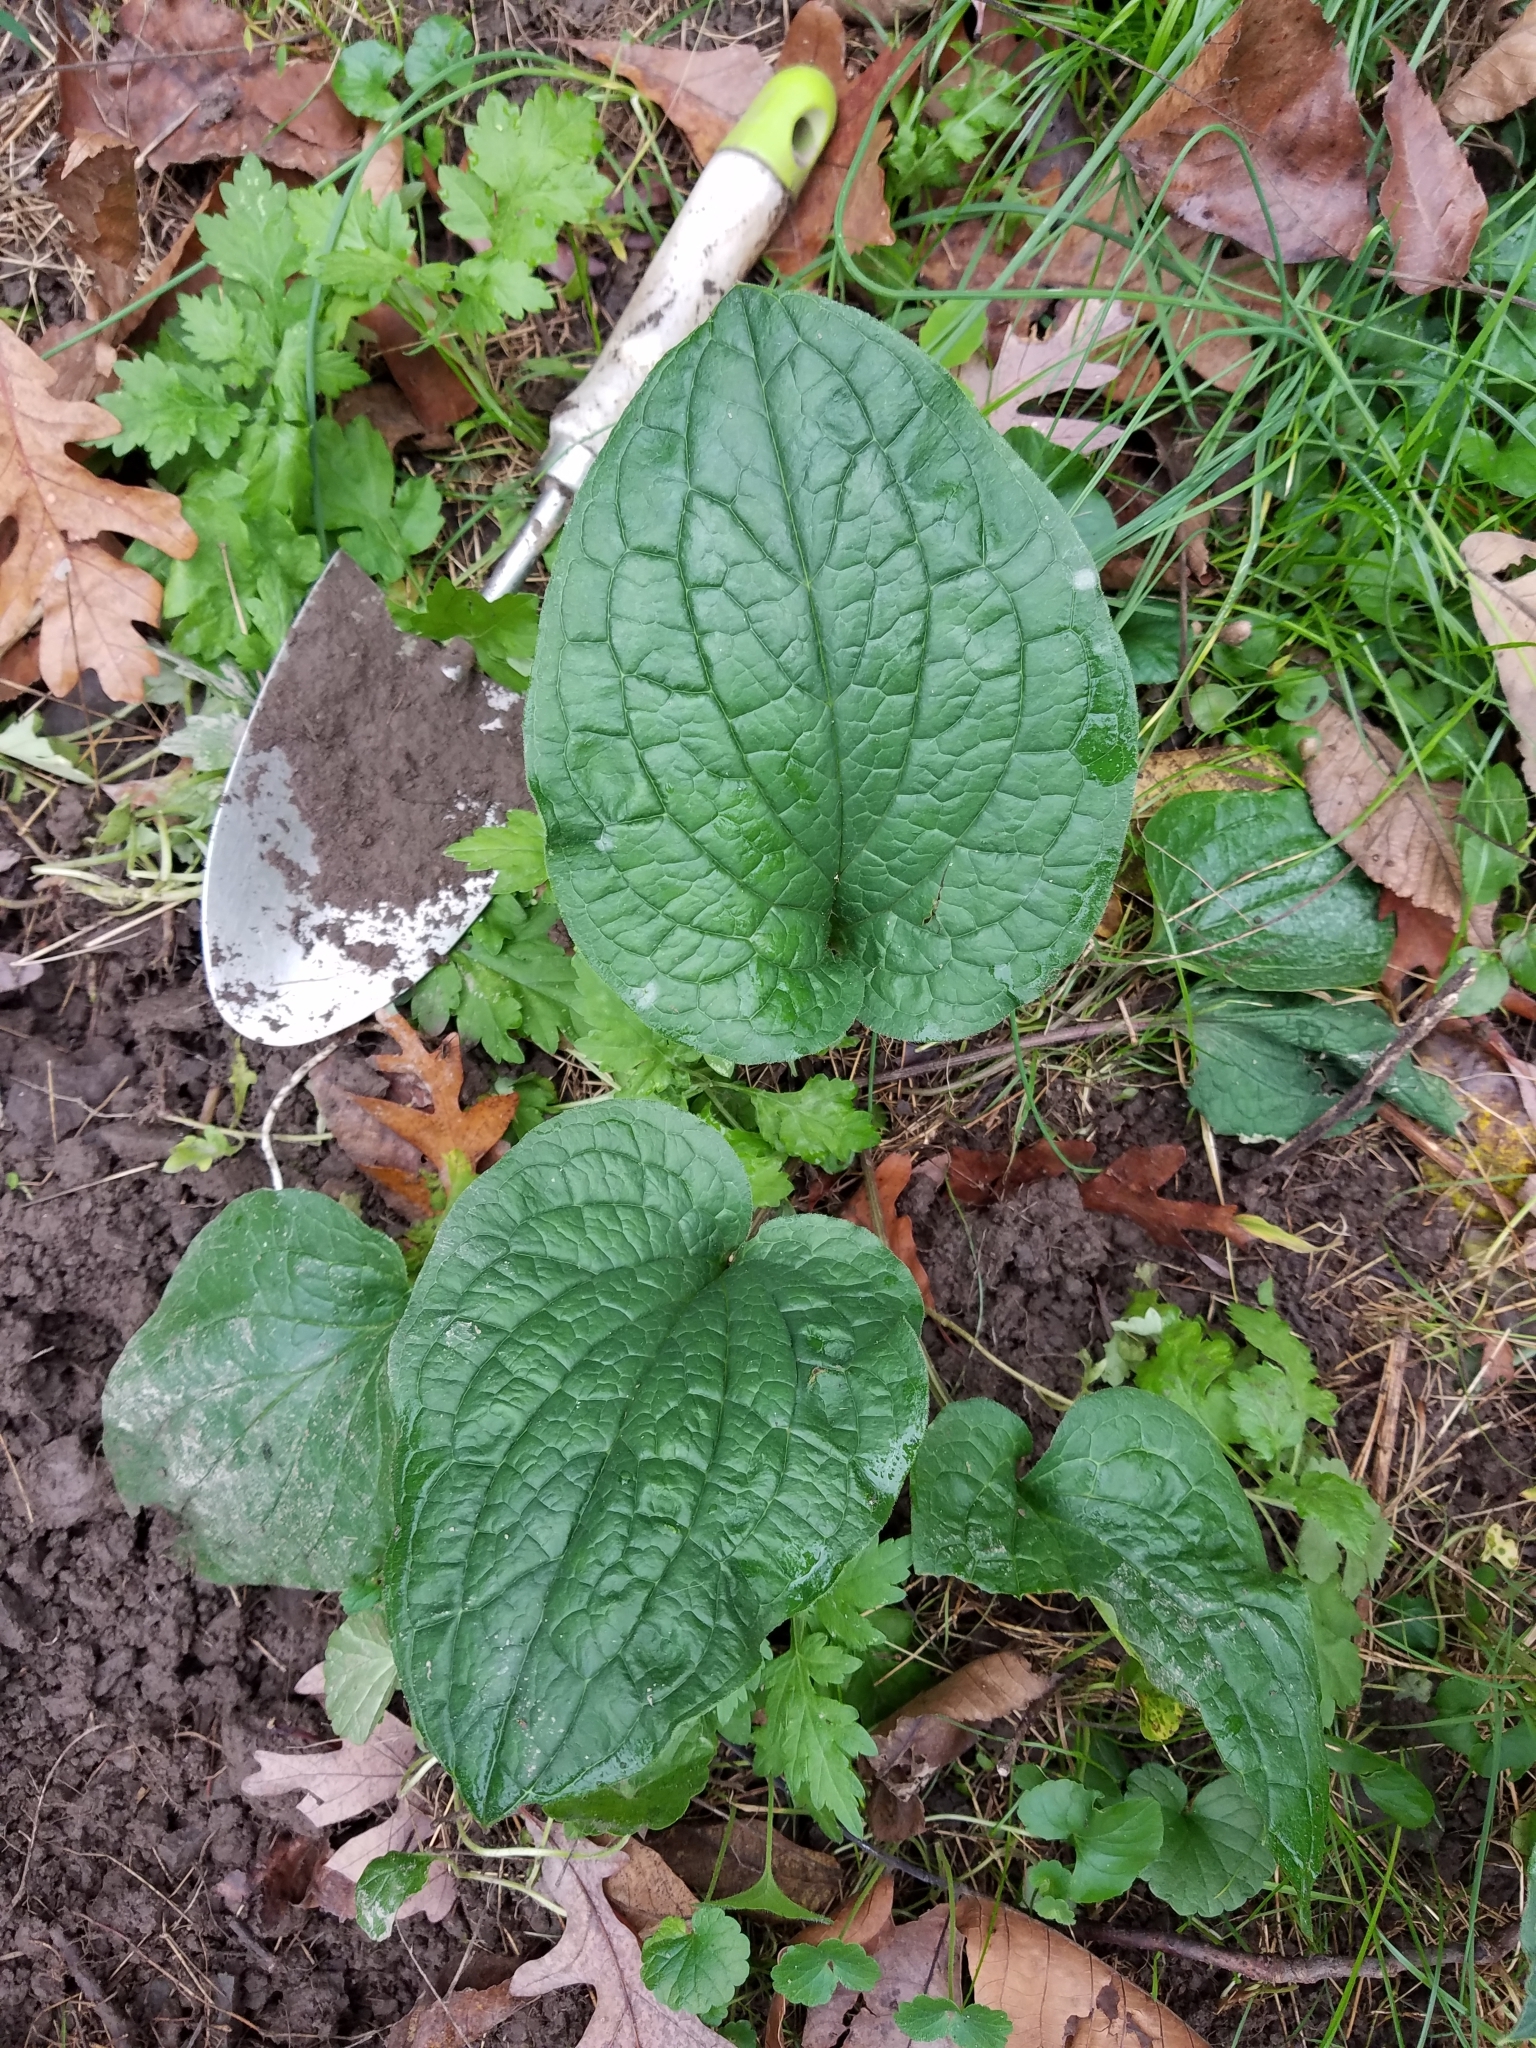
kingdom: Plantae
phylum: Tracheophyta
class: Magnoliopsida
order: Boraginales
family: Boraginaceae
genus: Hackelia
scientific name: Hackelia virginiana
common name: Beggar's-lice
